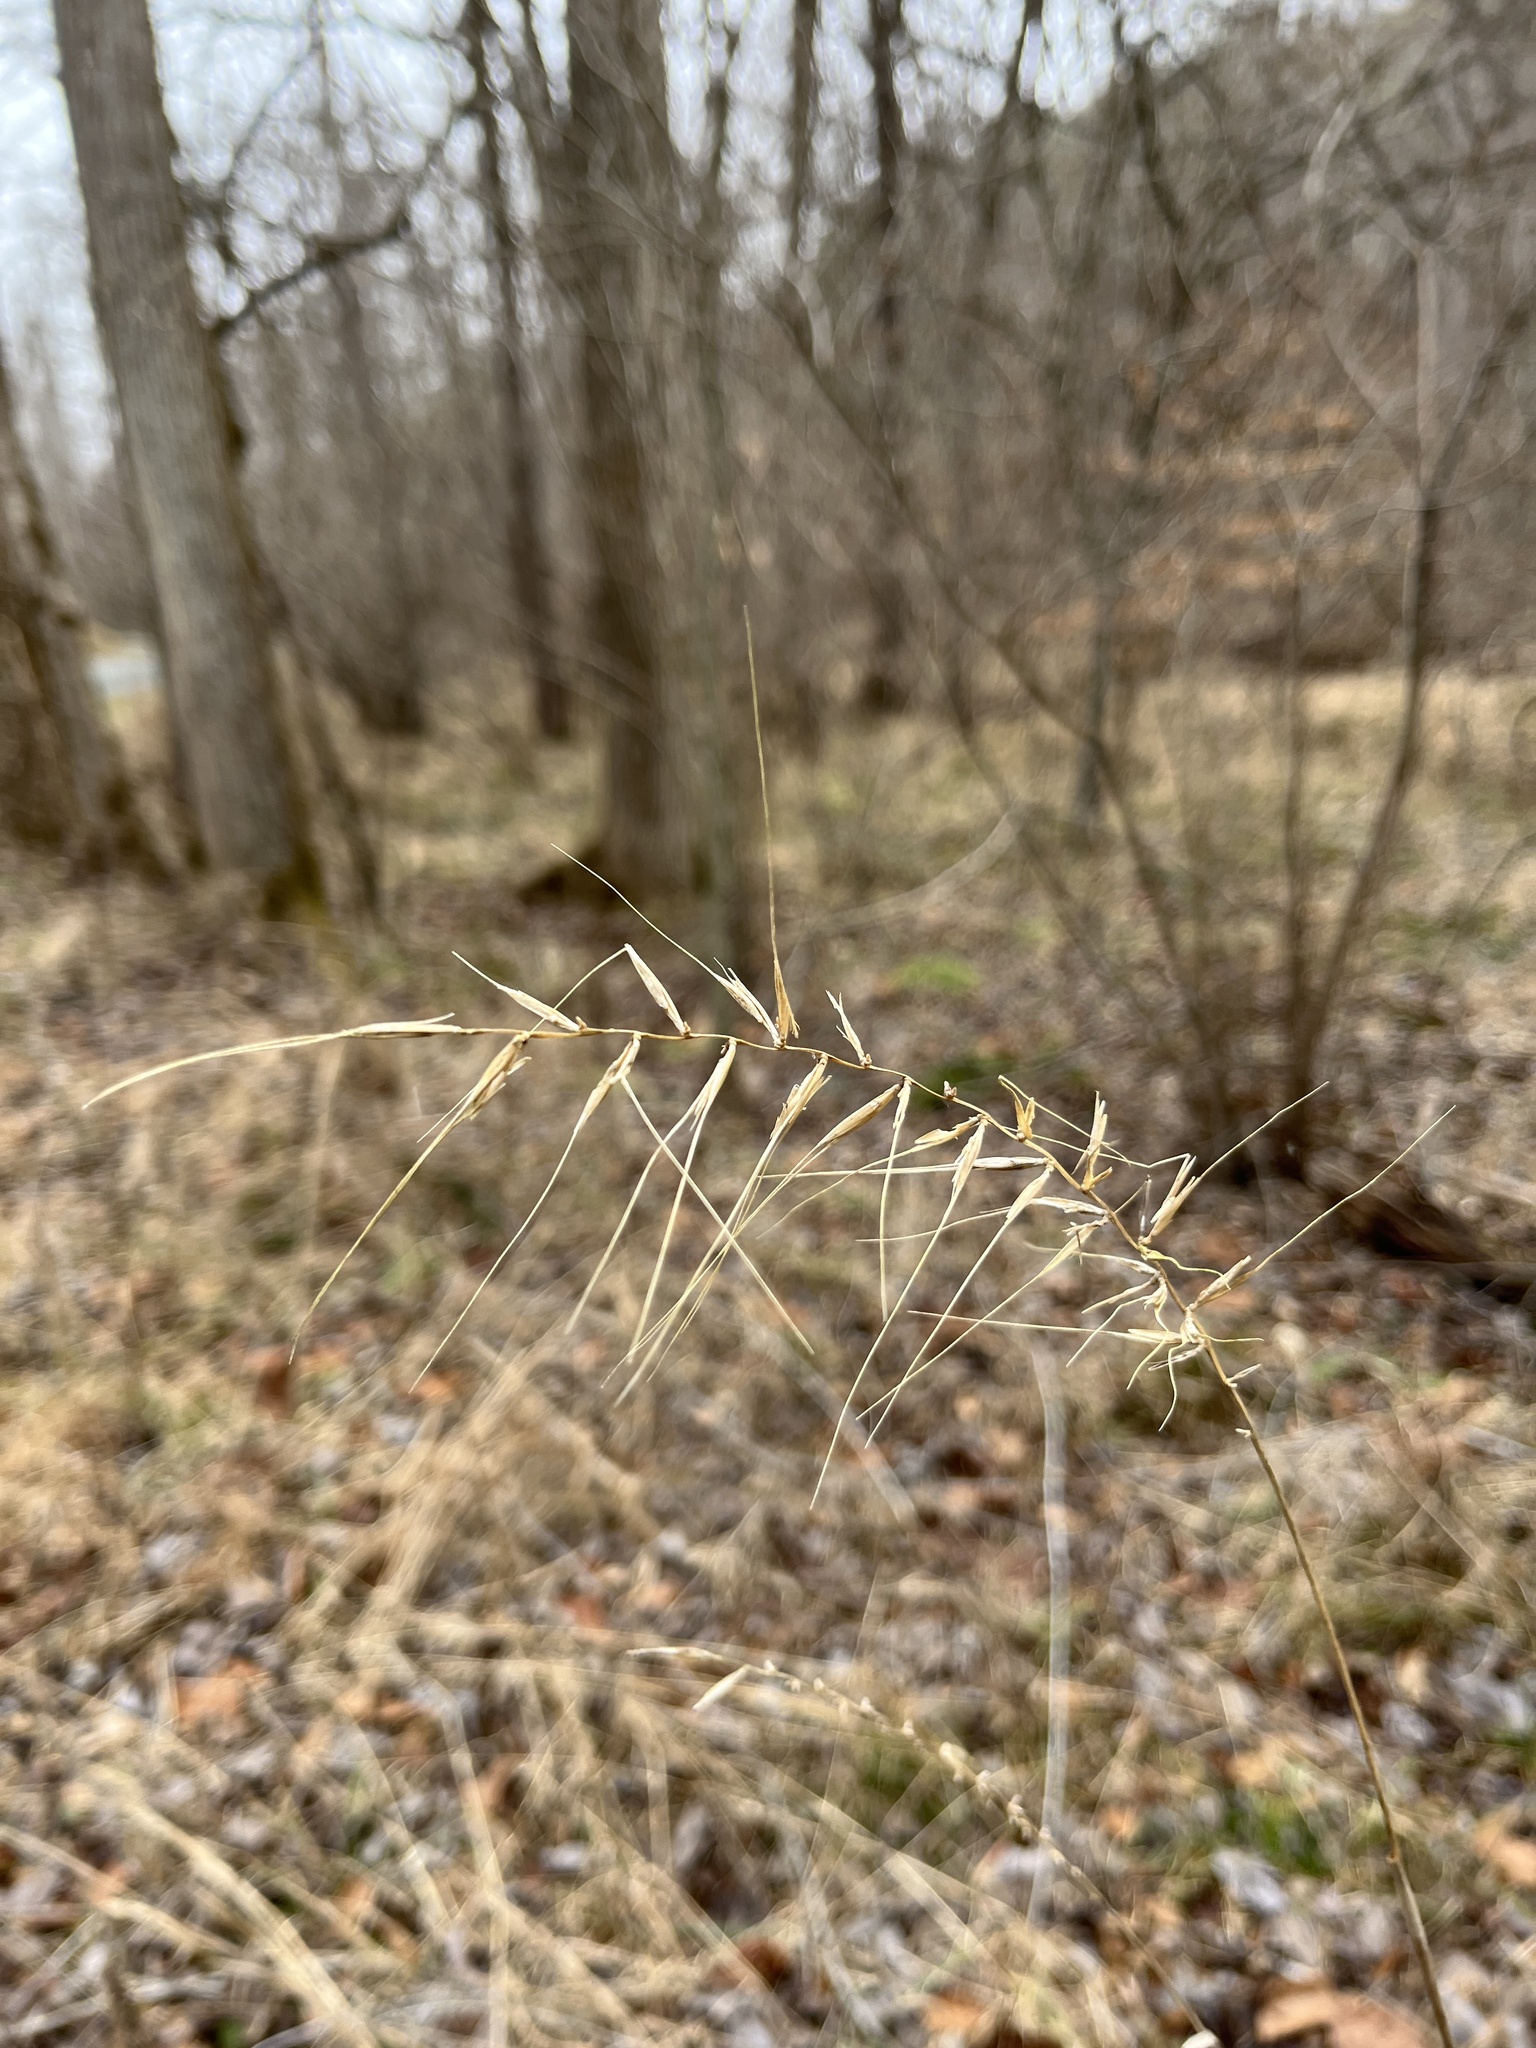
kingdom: Plantae
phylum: Tracheophyta
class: Liliopsida
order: Poales
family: Poaceae
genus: Elymus
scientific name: Elymus hystrix
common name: Bottlebrush grass
